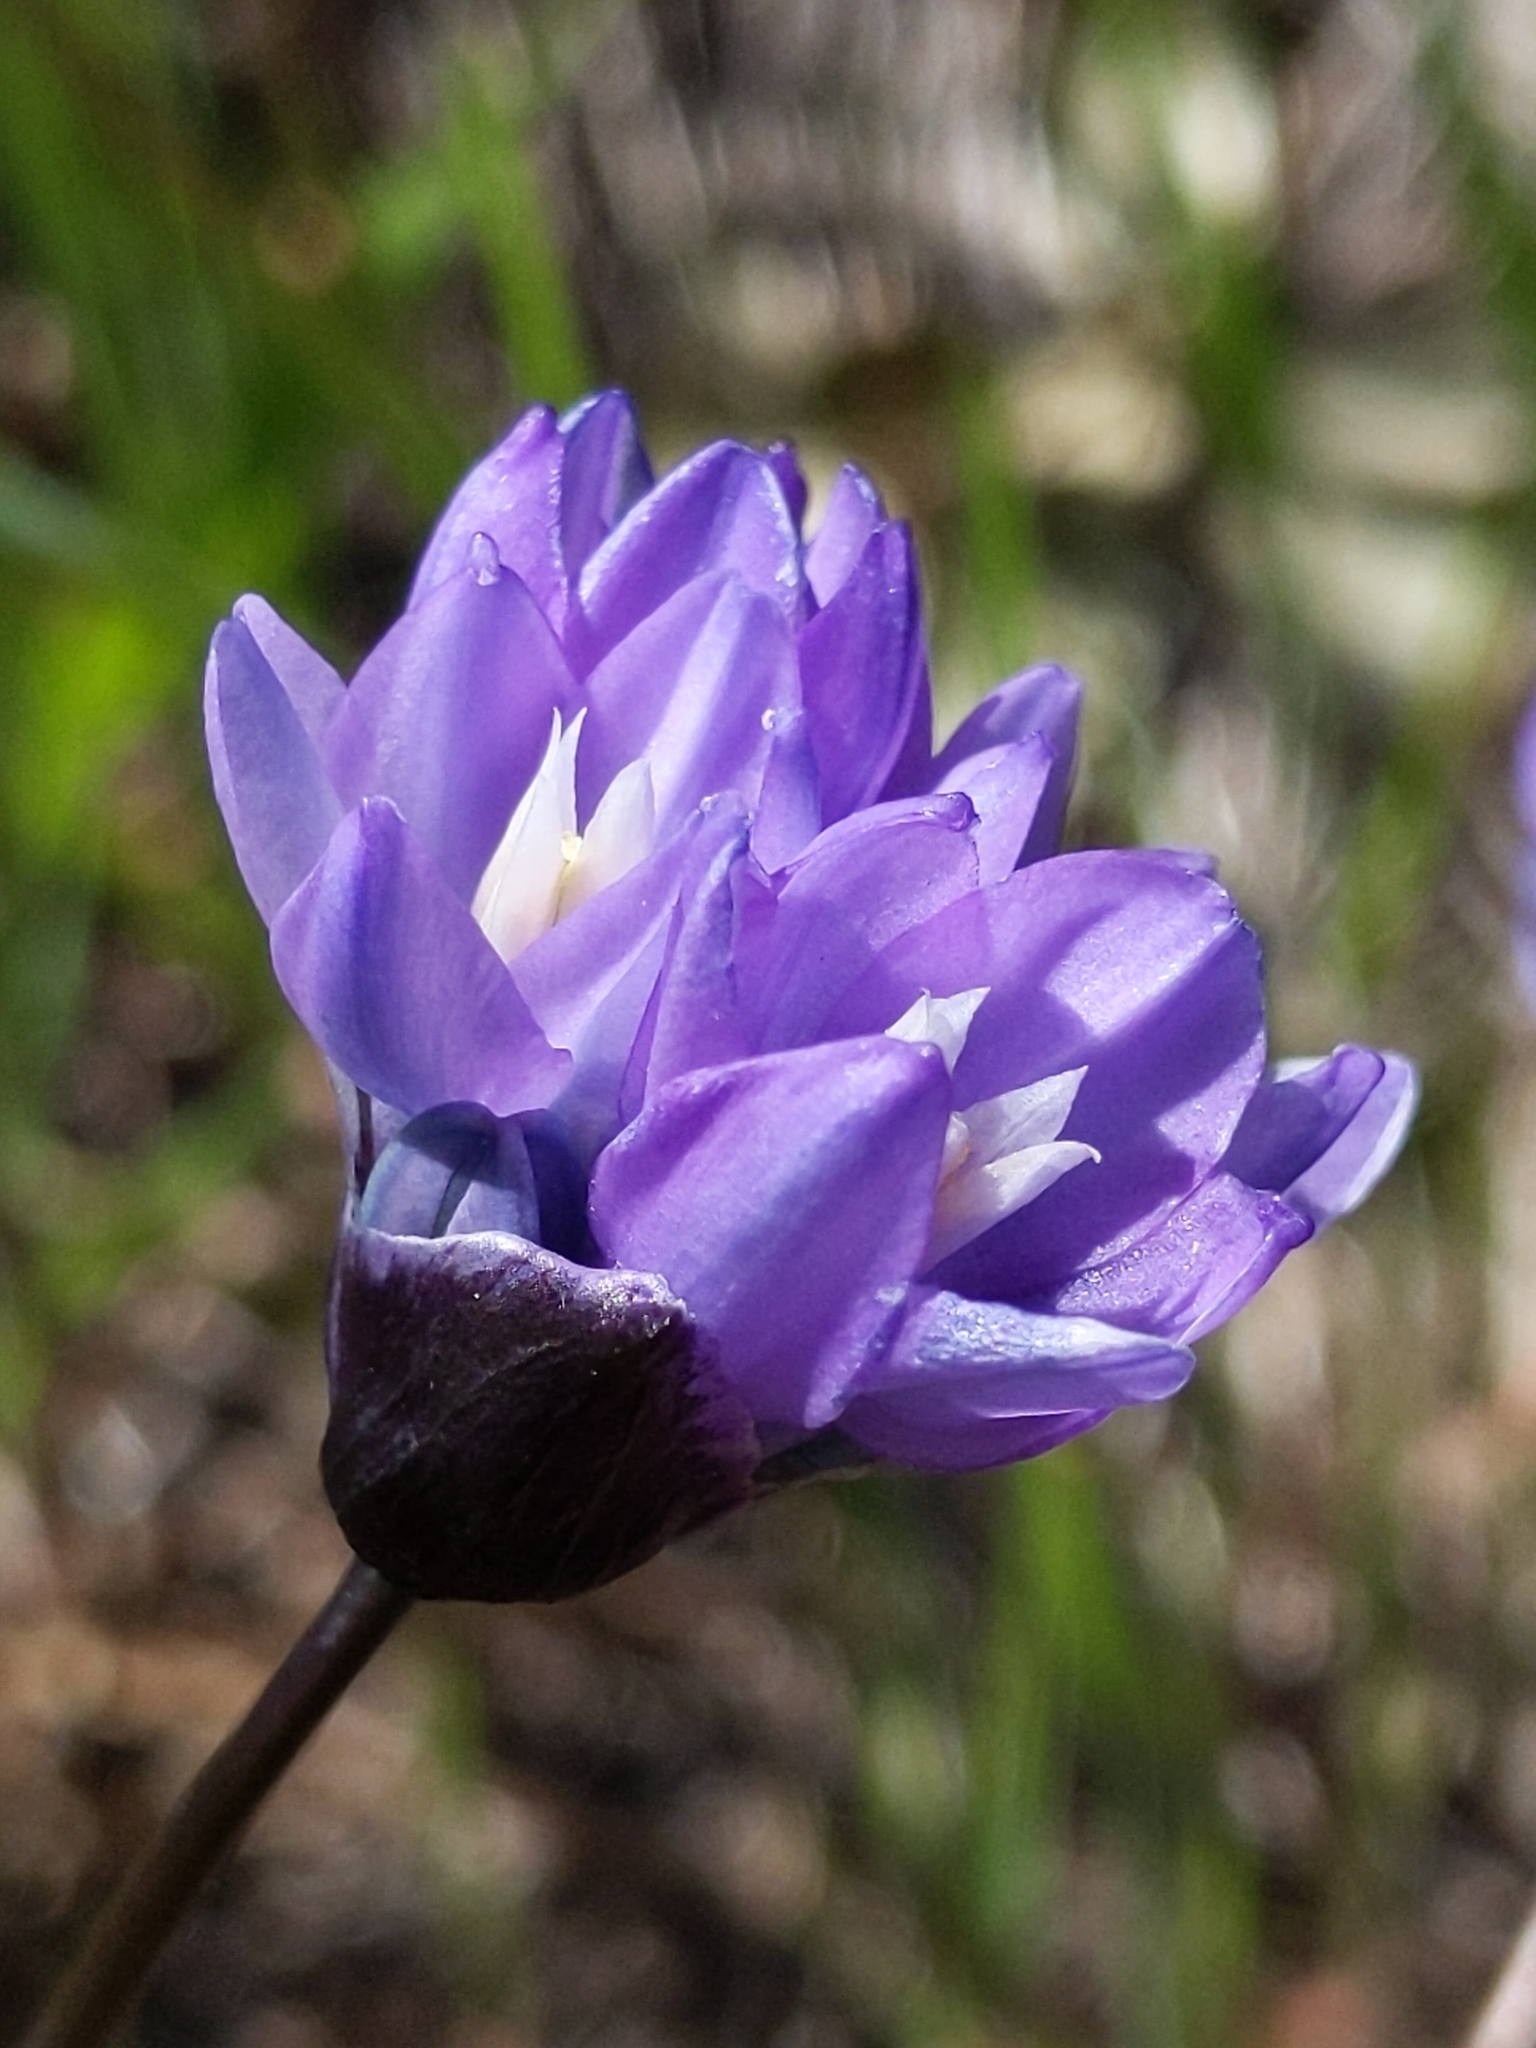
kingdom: Plantae
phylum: Tracheophyta
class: Liliopsida
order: Asparagales
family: Asparagaceae
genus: Dipterostemon
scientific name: Dipterostemon capitatus
